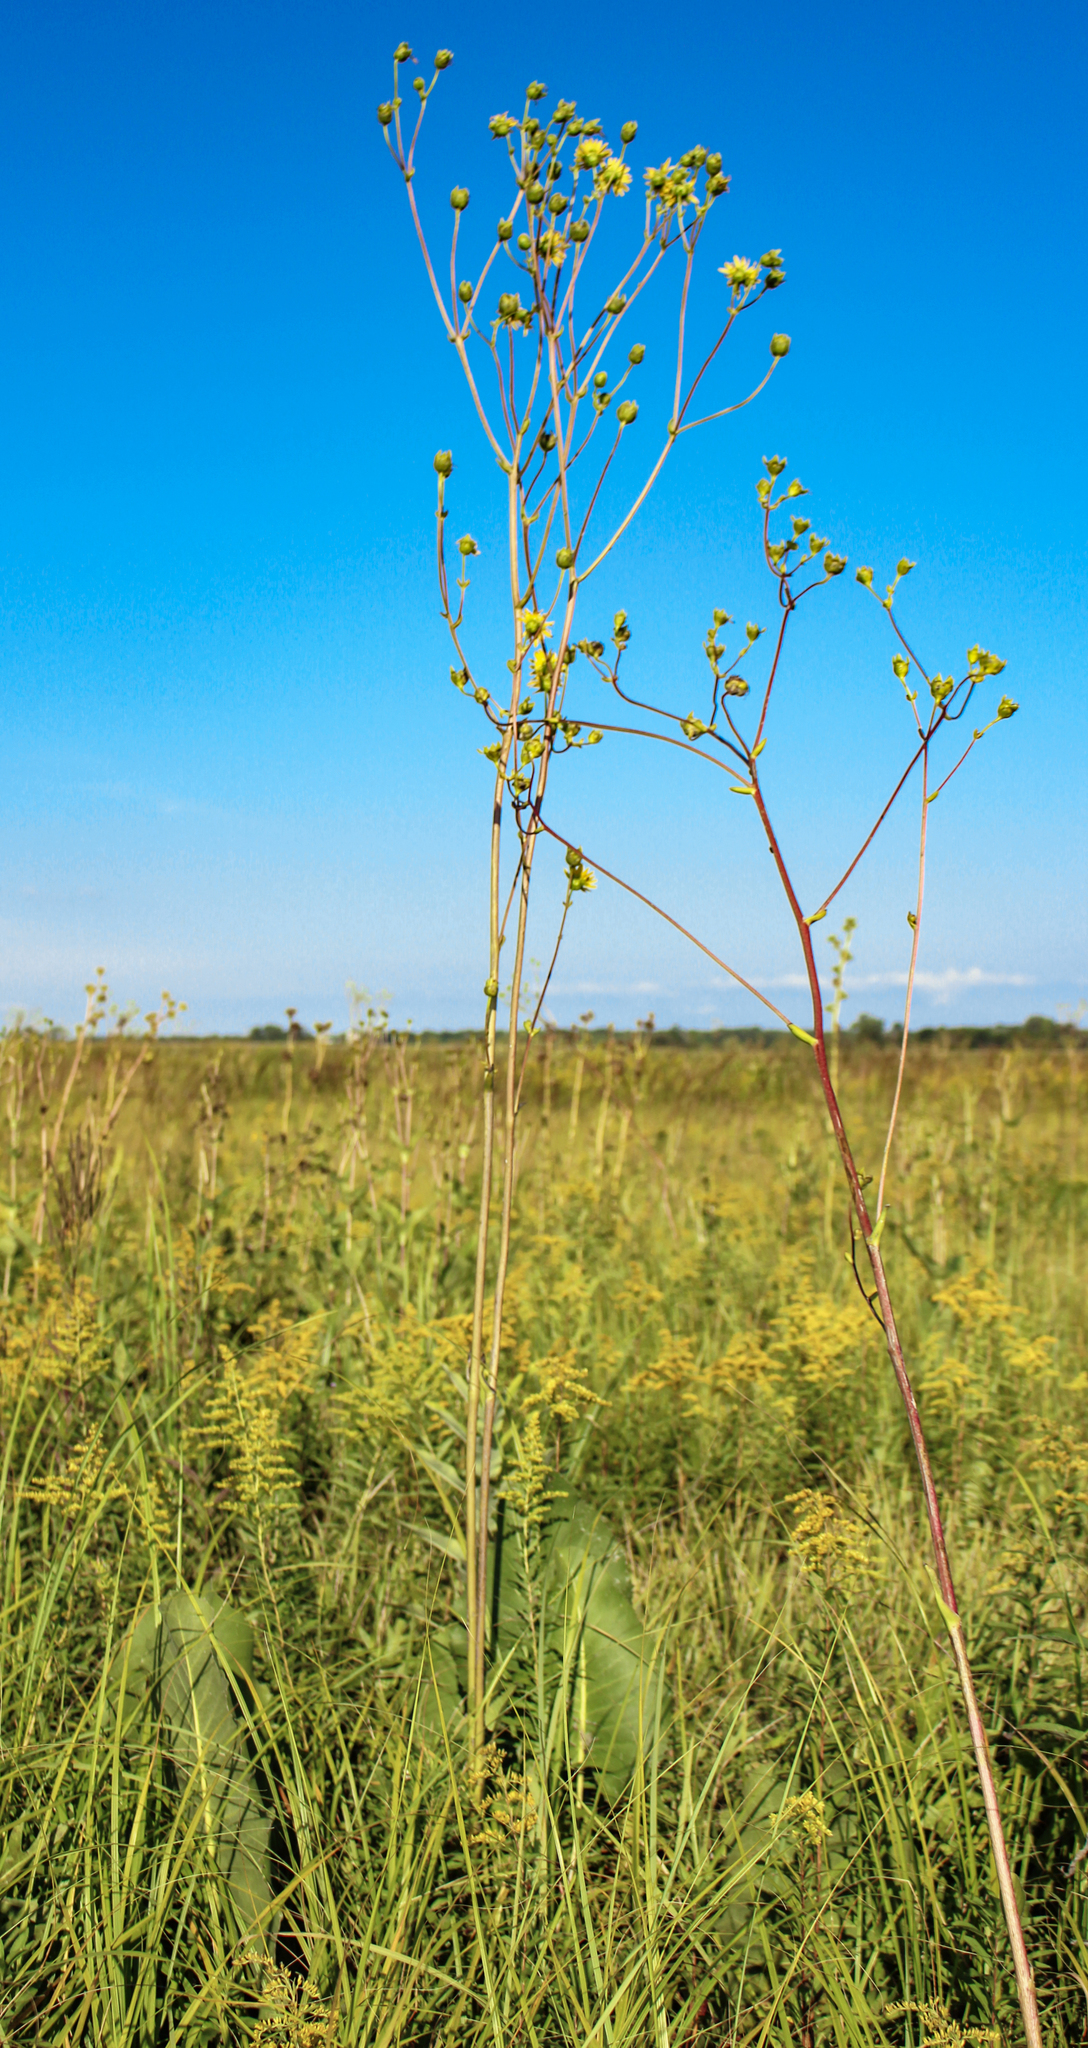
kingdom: Plantae
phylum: Tracheophyta
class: Magnoliopsida
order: Asterales
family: Asteraceae
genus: Silphium
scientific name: Silphium terebinthinaceum
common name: Basal-leaf rosinweed
